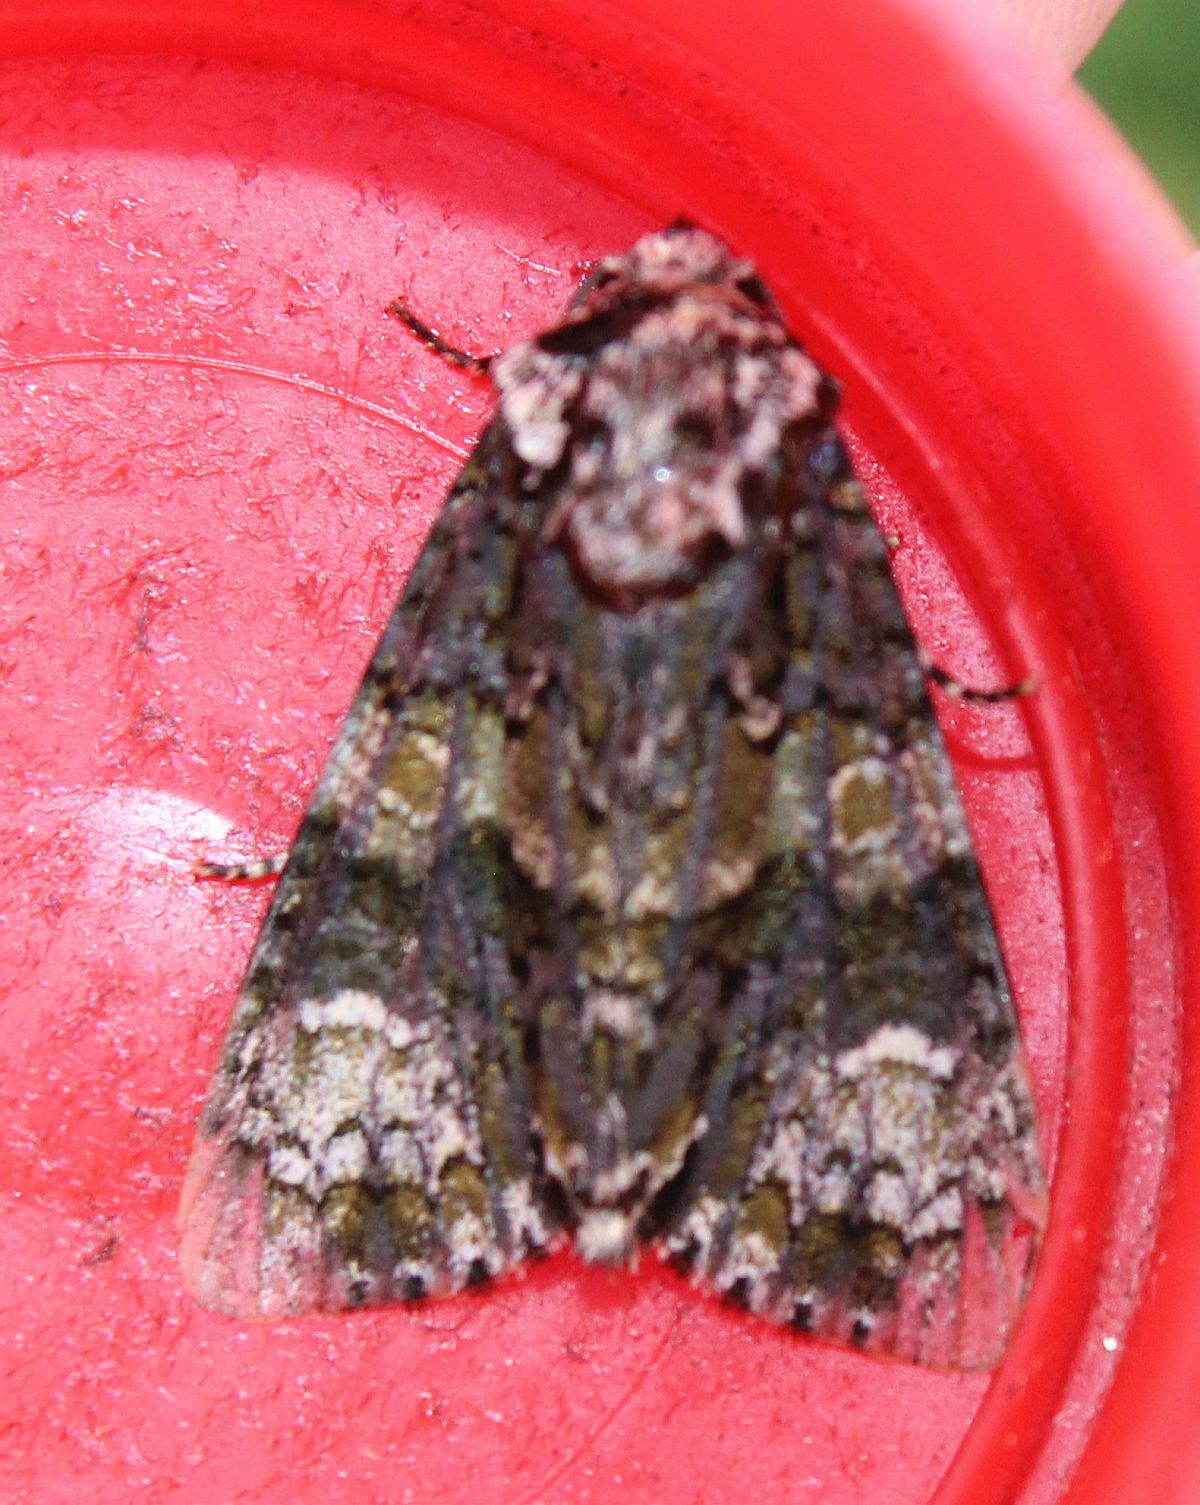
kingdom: Animalia
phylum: Arthropoda
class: Insecta
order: Lepidoptera
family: Noctuidae
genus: Craniophora
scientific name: Craniophora ligustri
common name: Coronet
